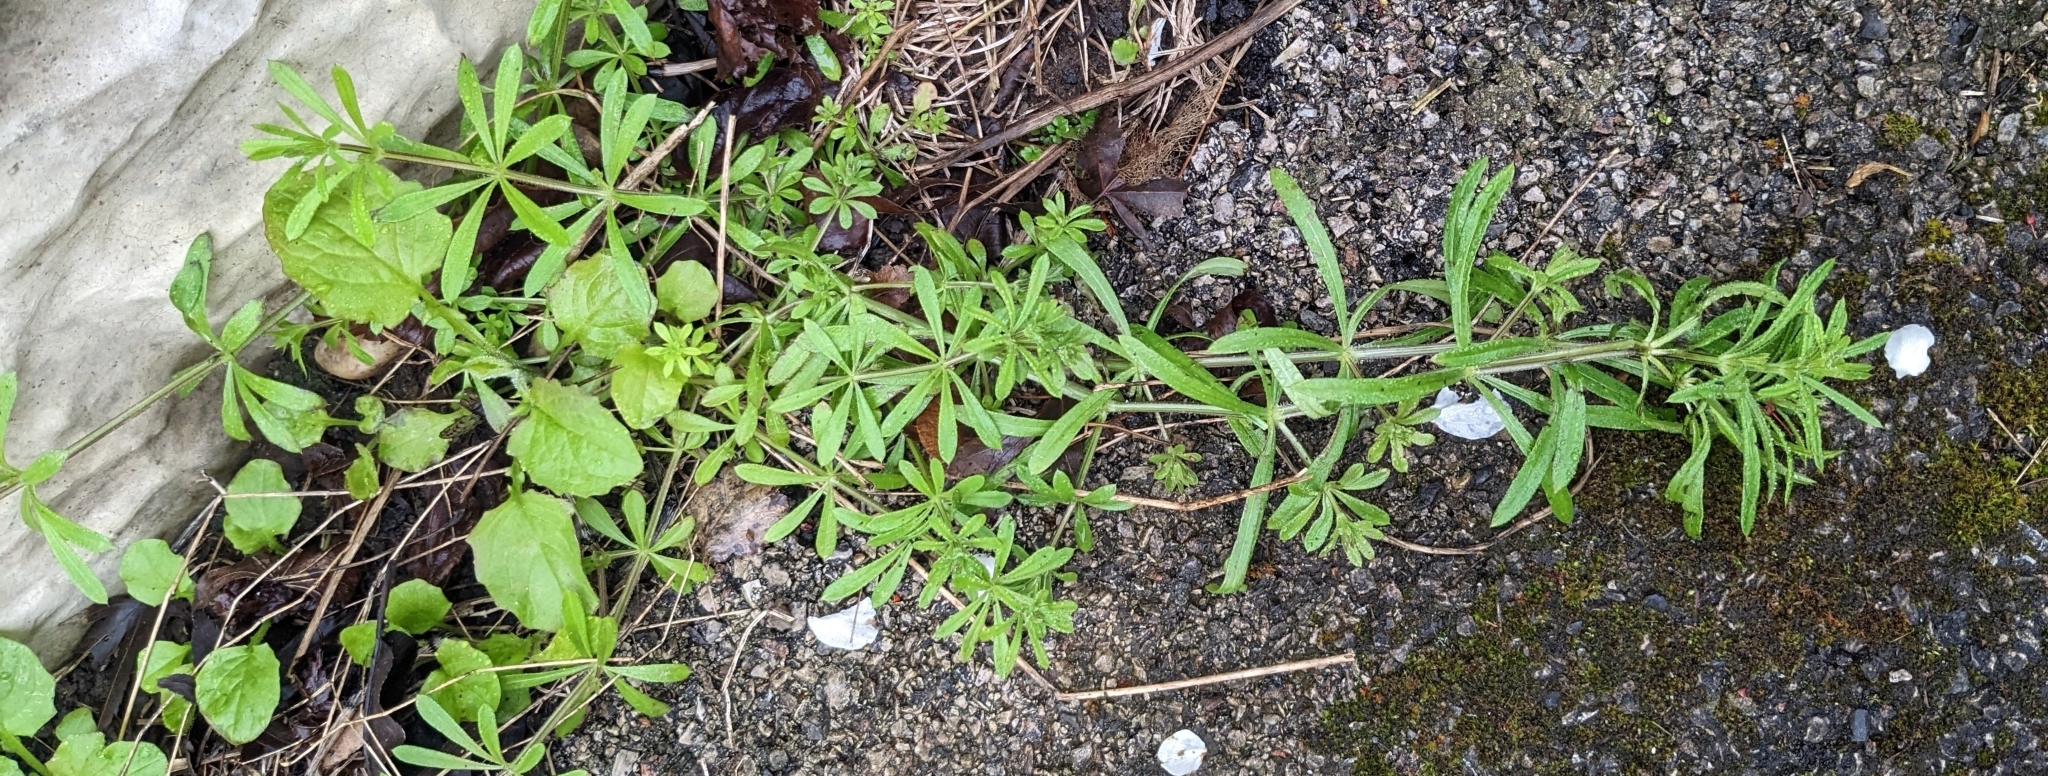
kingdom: Plantae
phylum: Tracheophyta
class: Magnoliopsida
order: Gentianales
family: Rubiaceae
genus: Galium
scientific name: Galium aparine
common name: Cleavers
